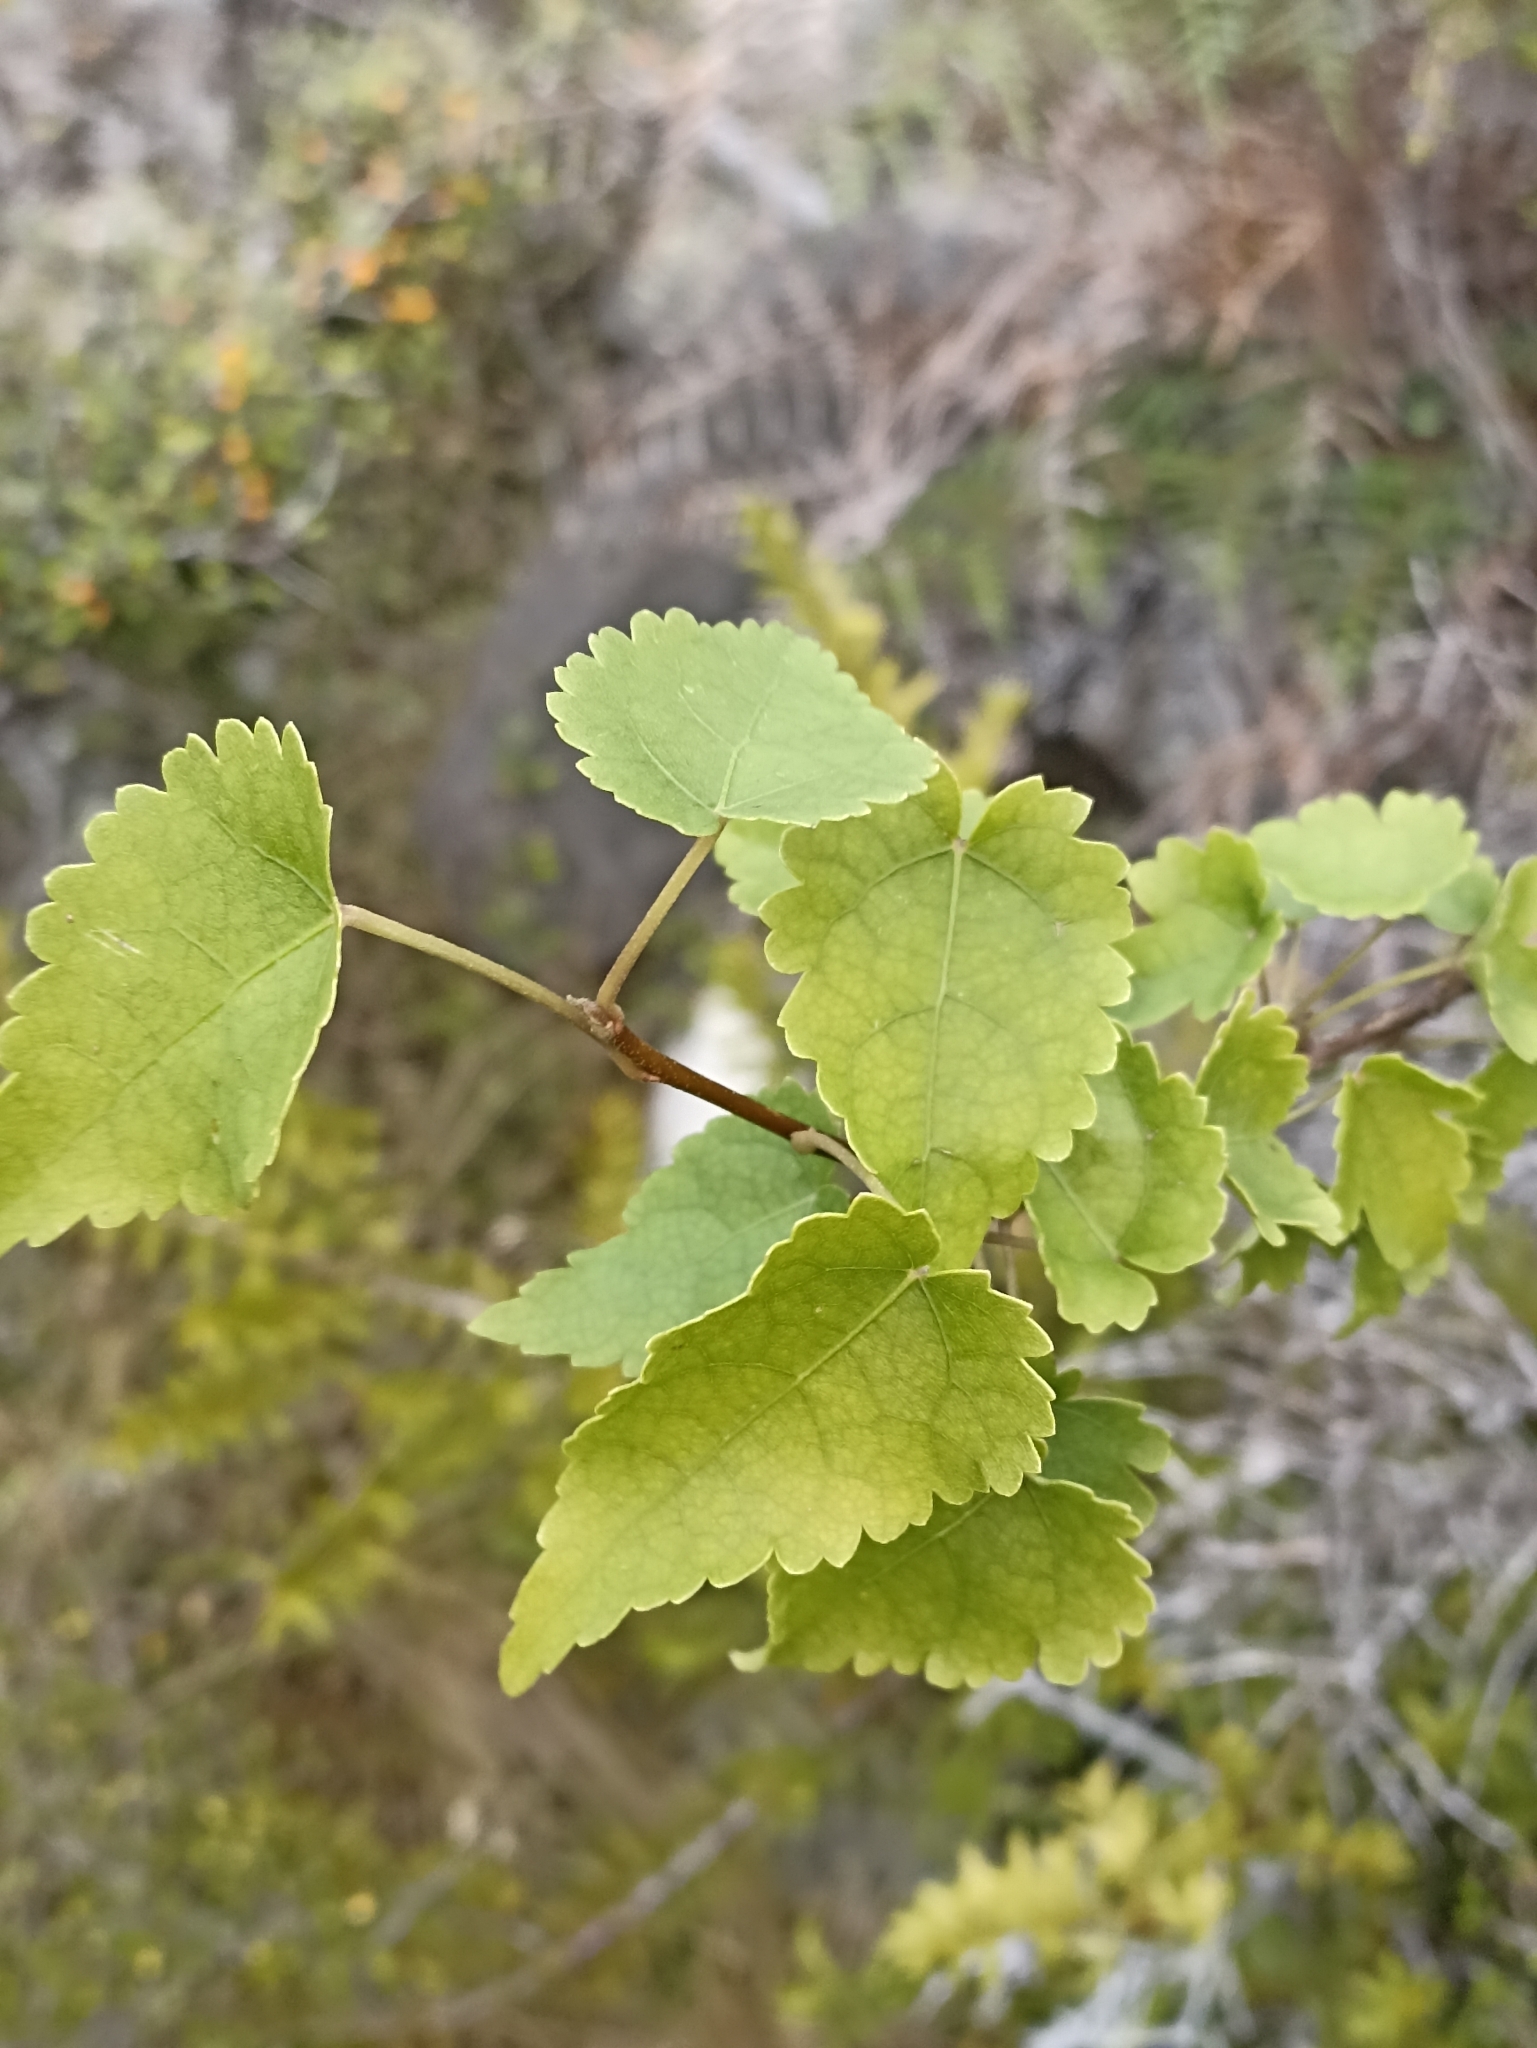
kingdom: Plantae
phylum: Tracheophyta
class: Magnoliopsida
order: Malvales
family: Malvaceae
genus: Hoheria
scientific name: Hoheria glabrata
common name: Mountain-ribbon
